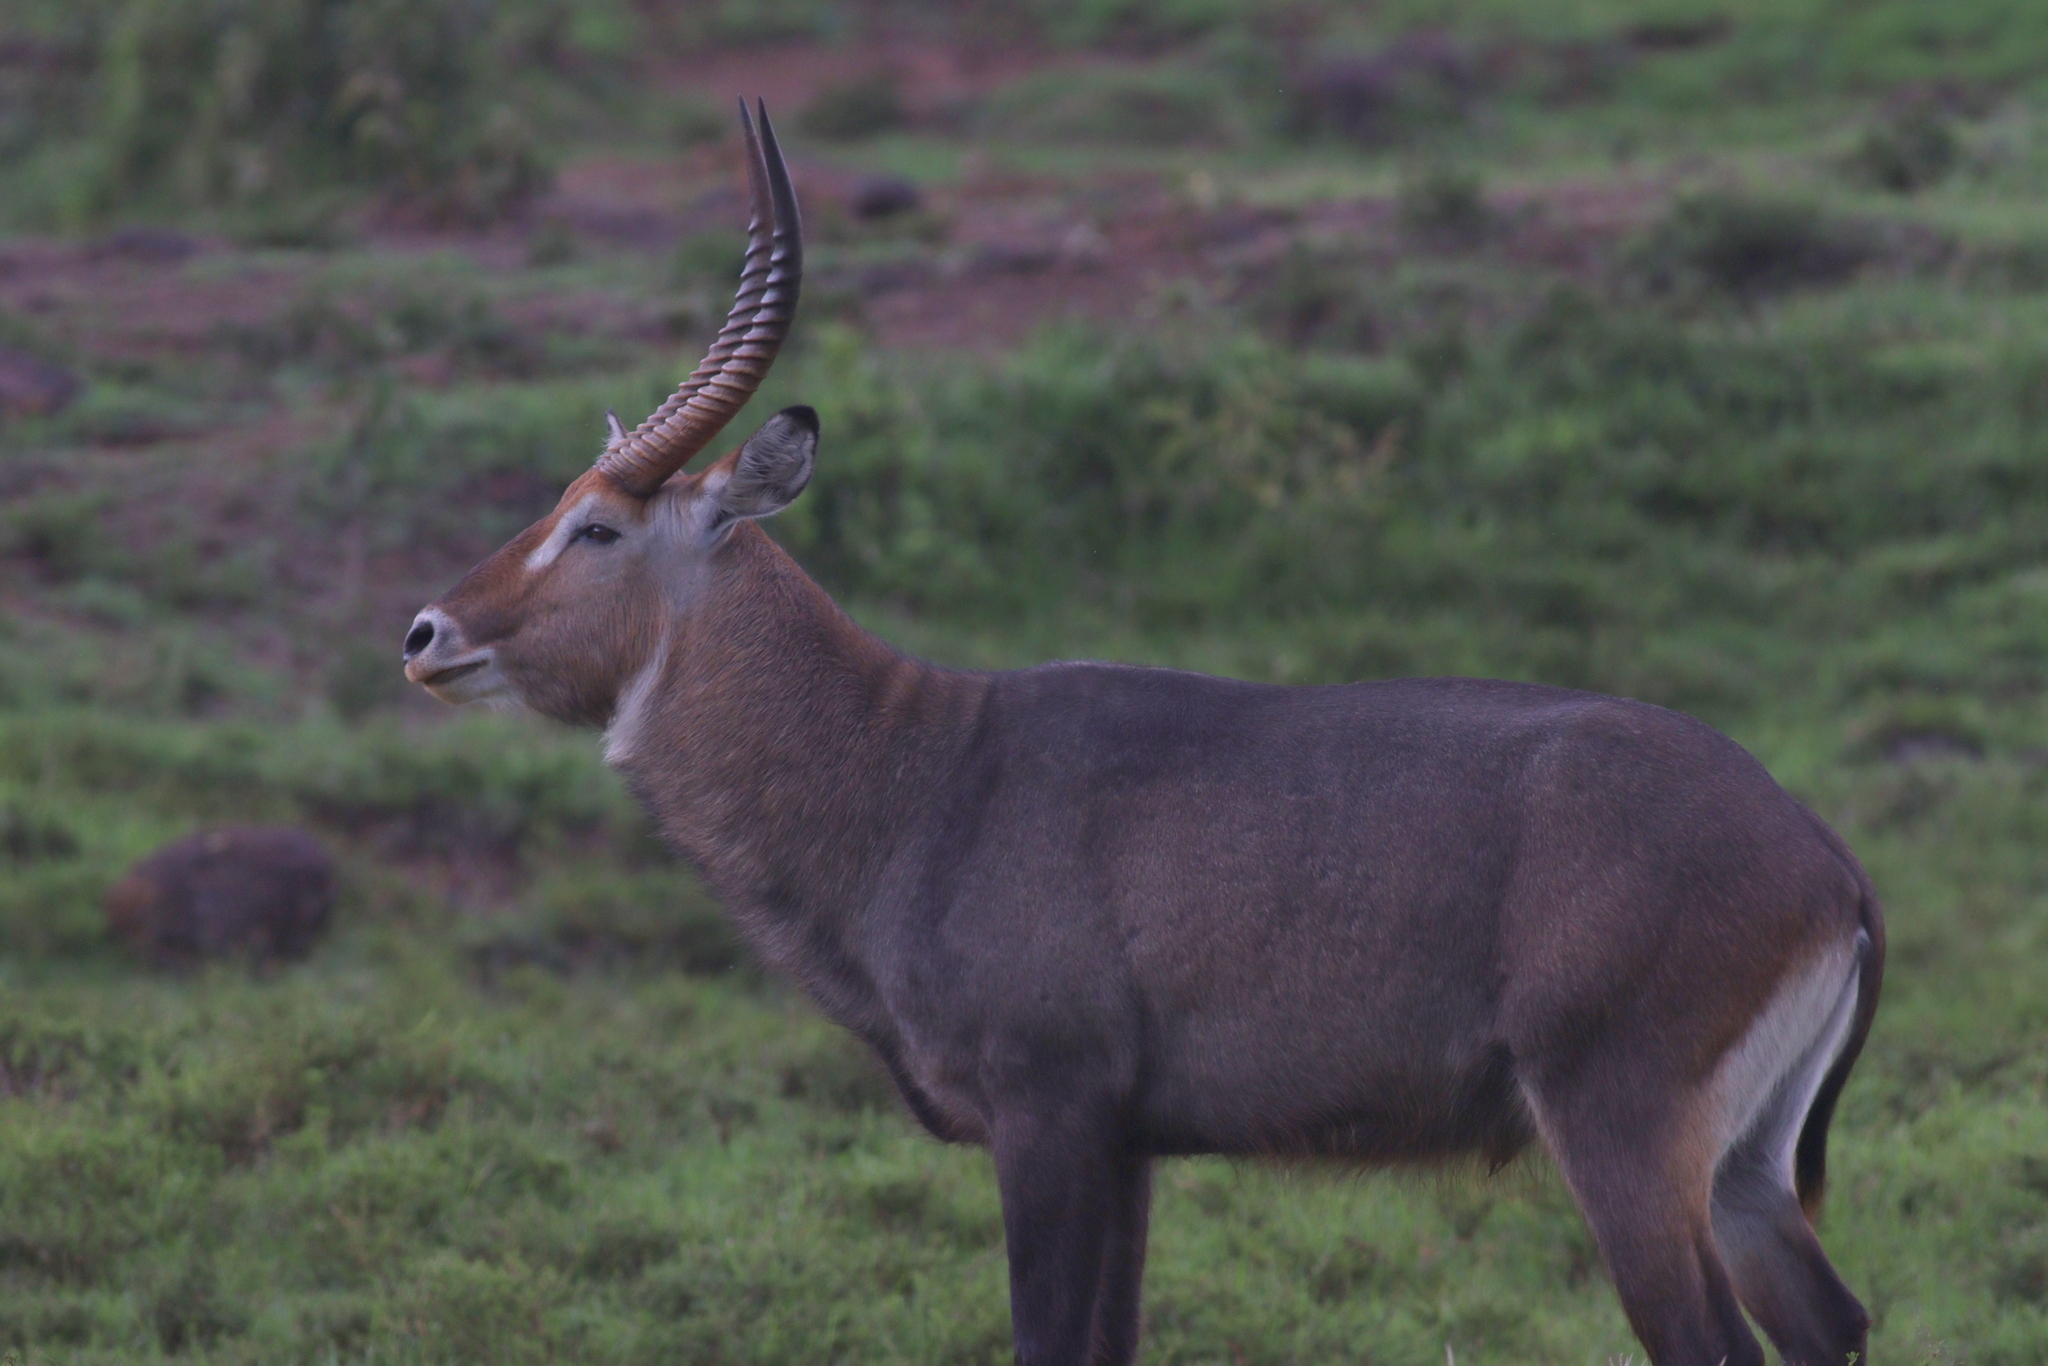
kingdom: Animalia
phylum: Chordata
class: Mammalia
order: Artiodactyla
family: Bovidae
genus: Kobus
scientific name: Kobus ellipsiprymnus
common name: Waterbuck
